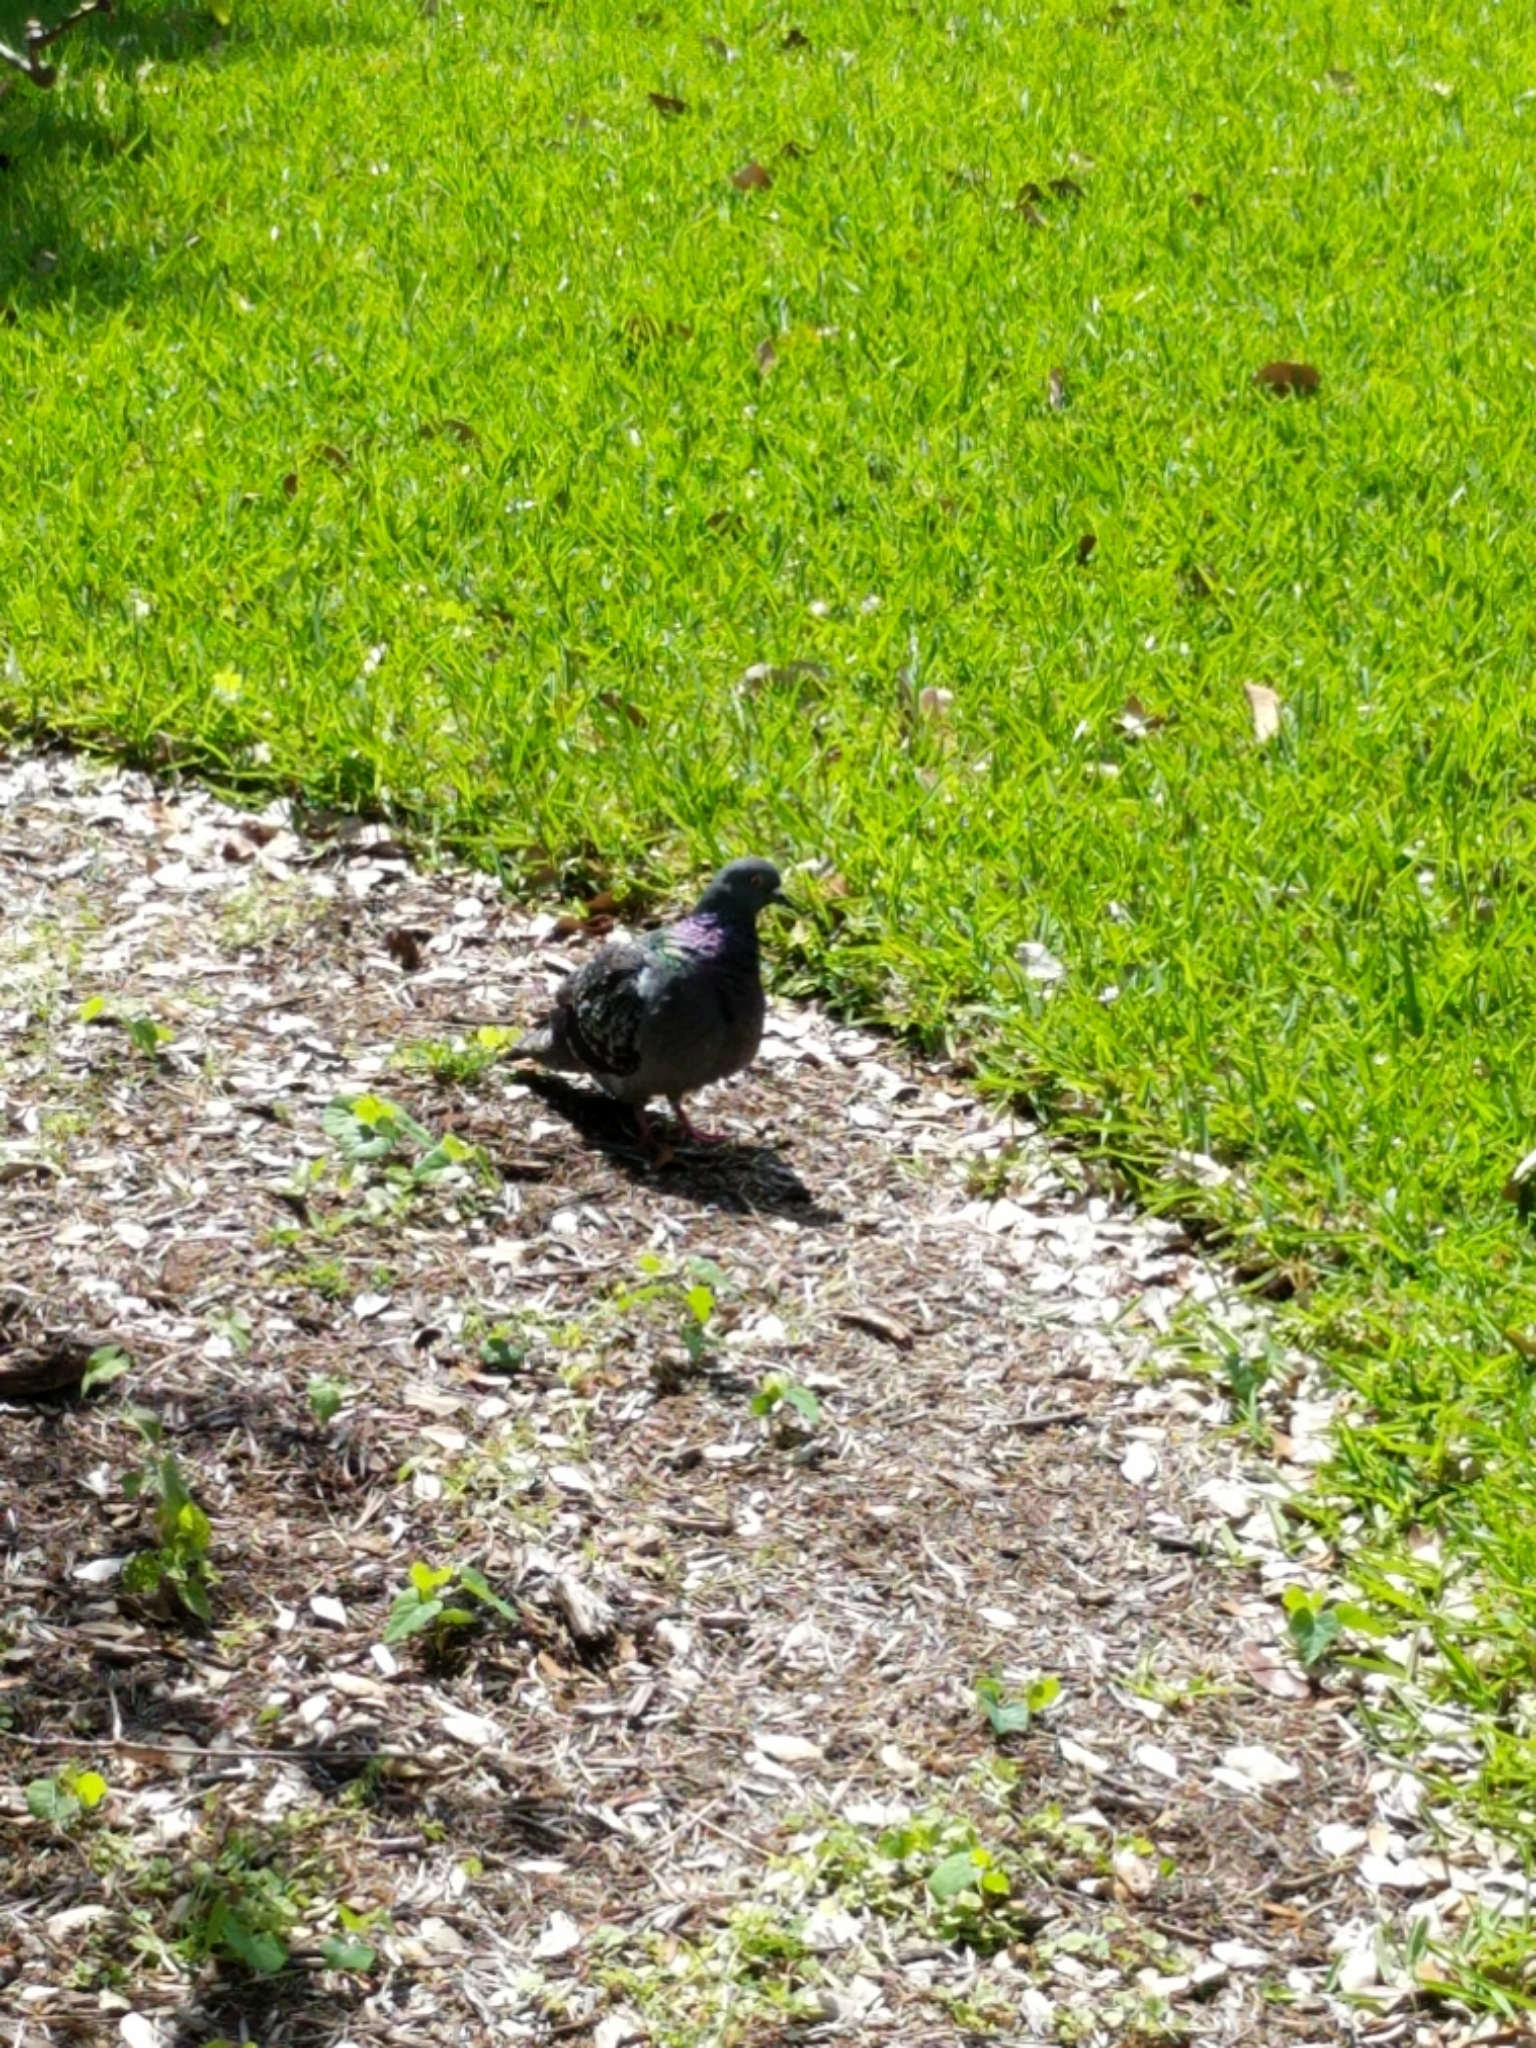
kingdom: Animalia
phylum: Chordata
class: Aves
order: Columbiformes
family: Columbidae
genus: Columba
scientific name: Columba livia
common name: Rock pigeon
